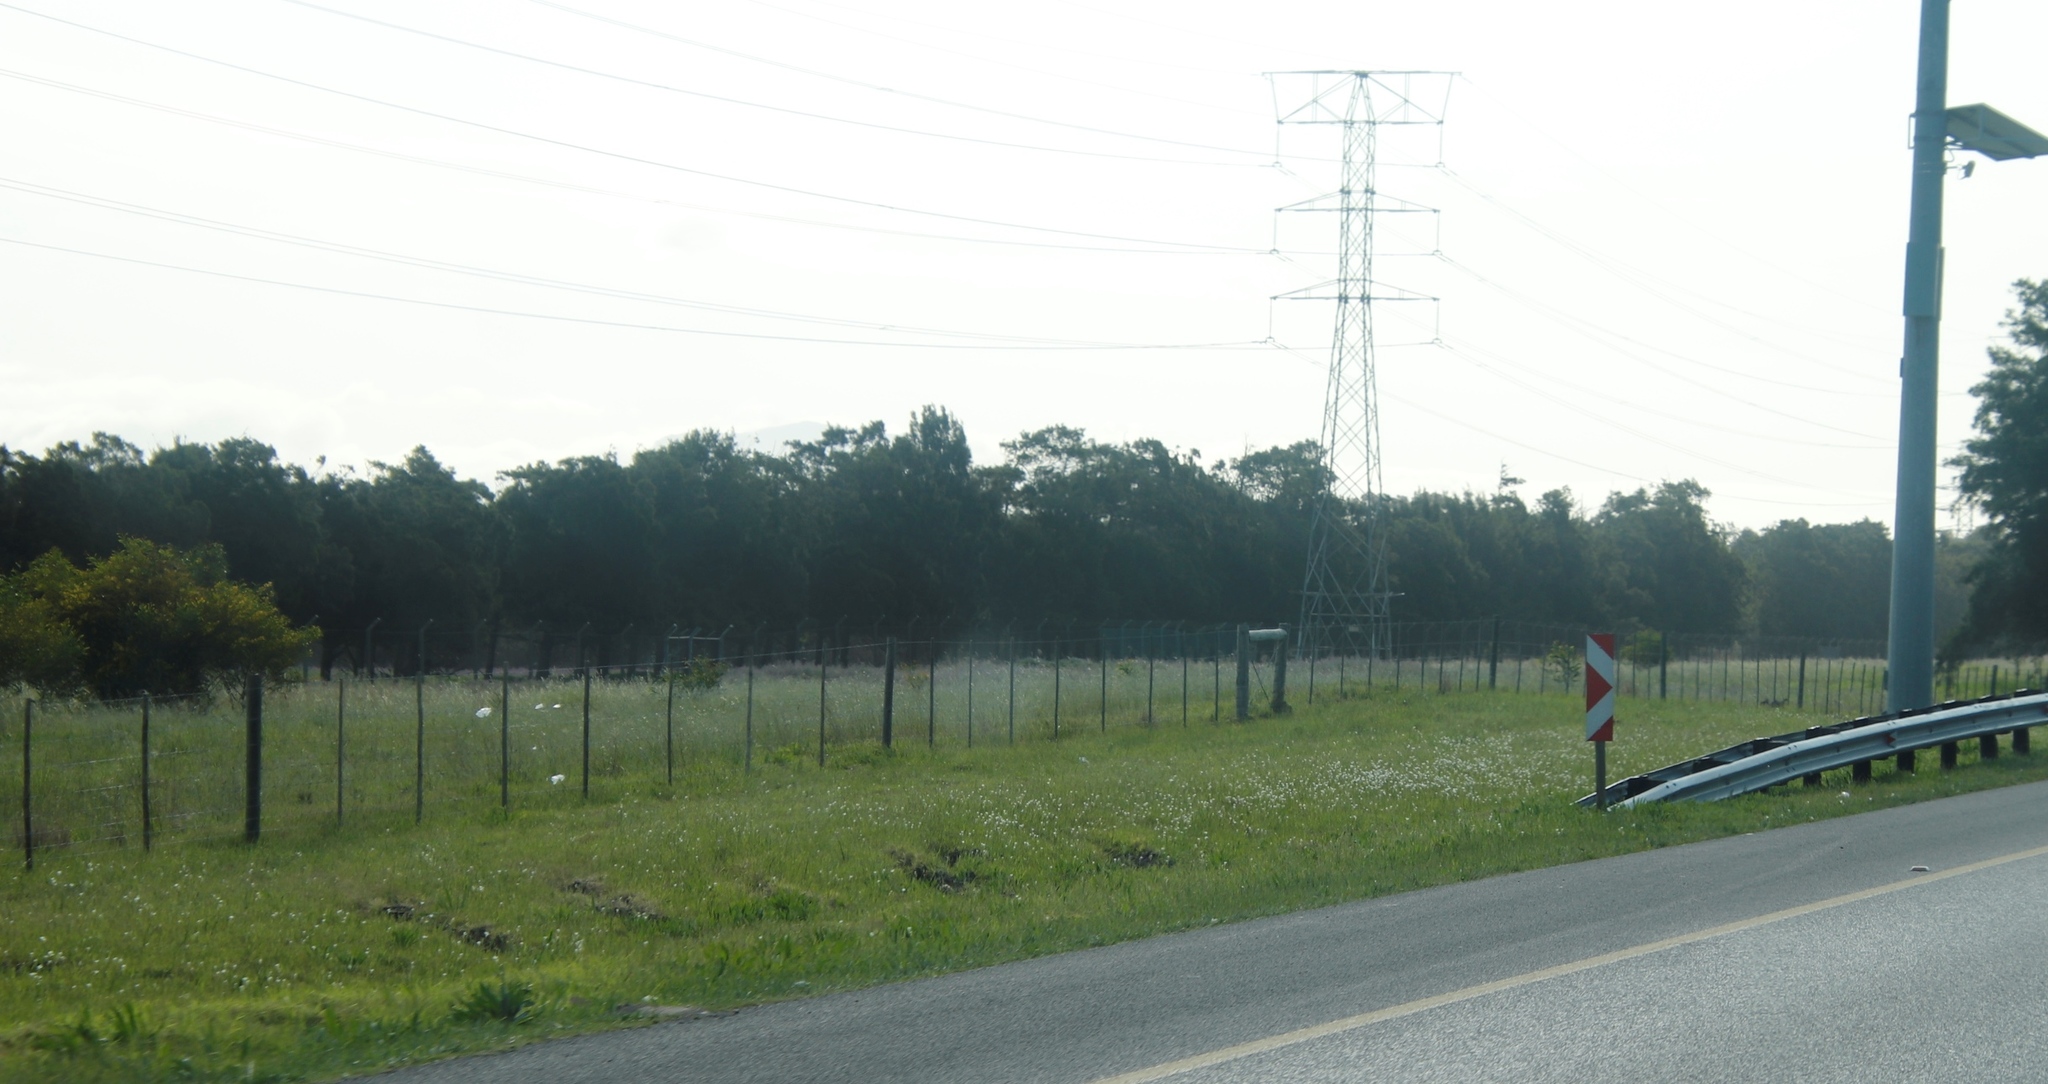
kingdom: Plantae
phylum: Tracheophyta
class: Liliopsida
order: Asparagales
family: Iridaceae
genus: Sparaxis
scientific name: Sparaxis bulbifera
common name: Harlequin-flower
